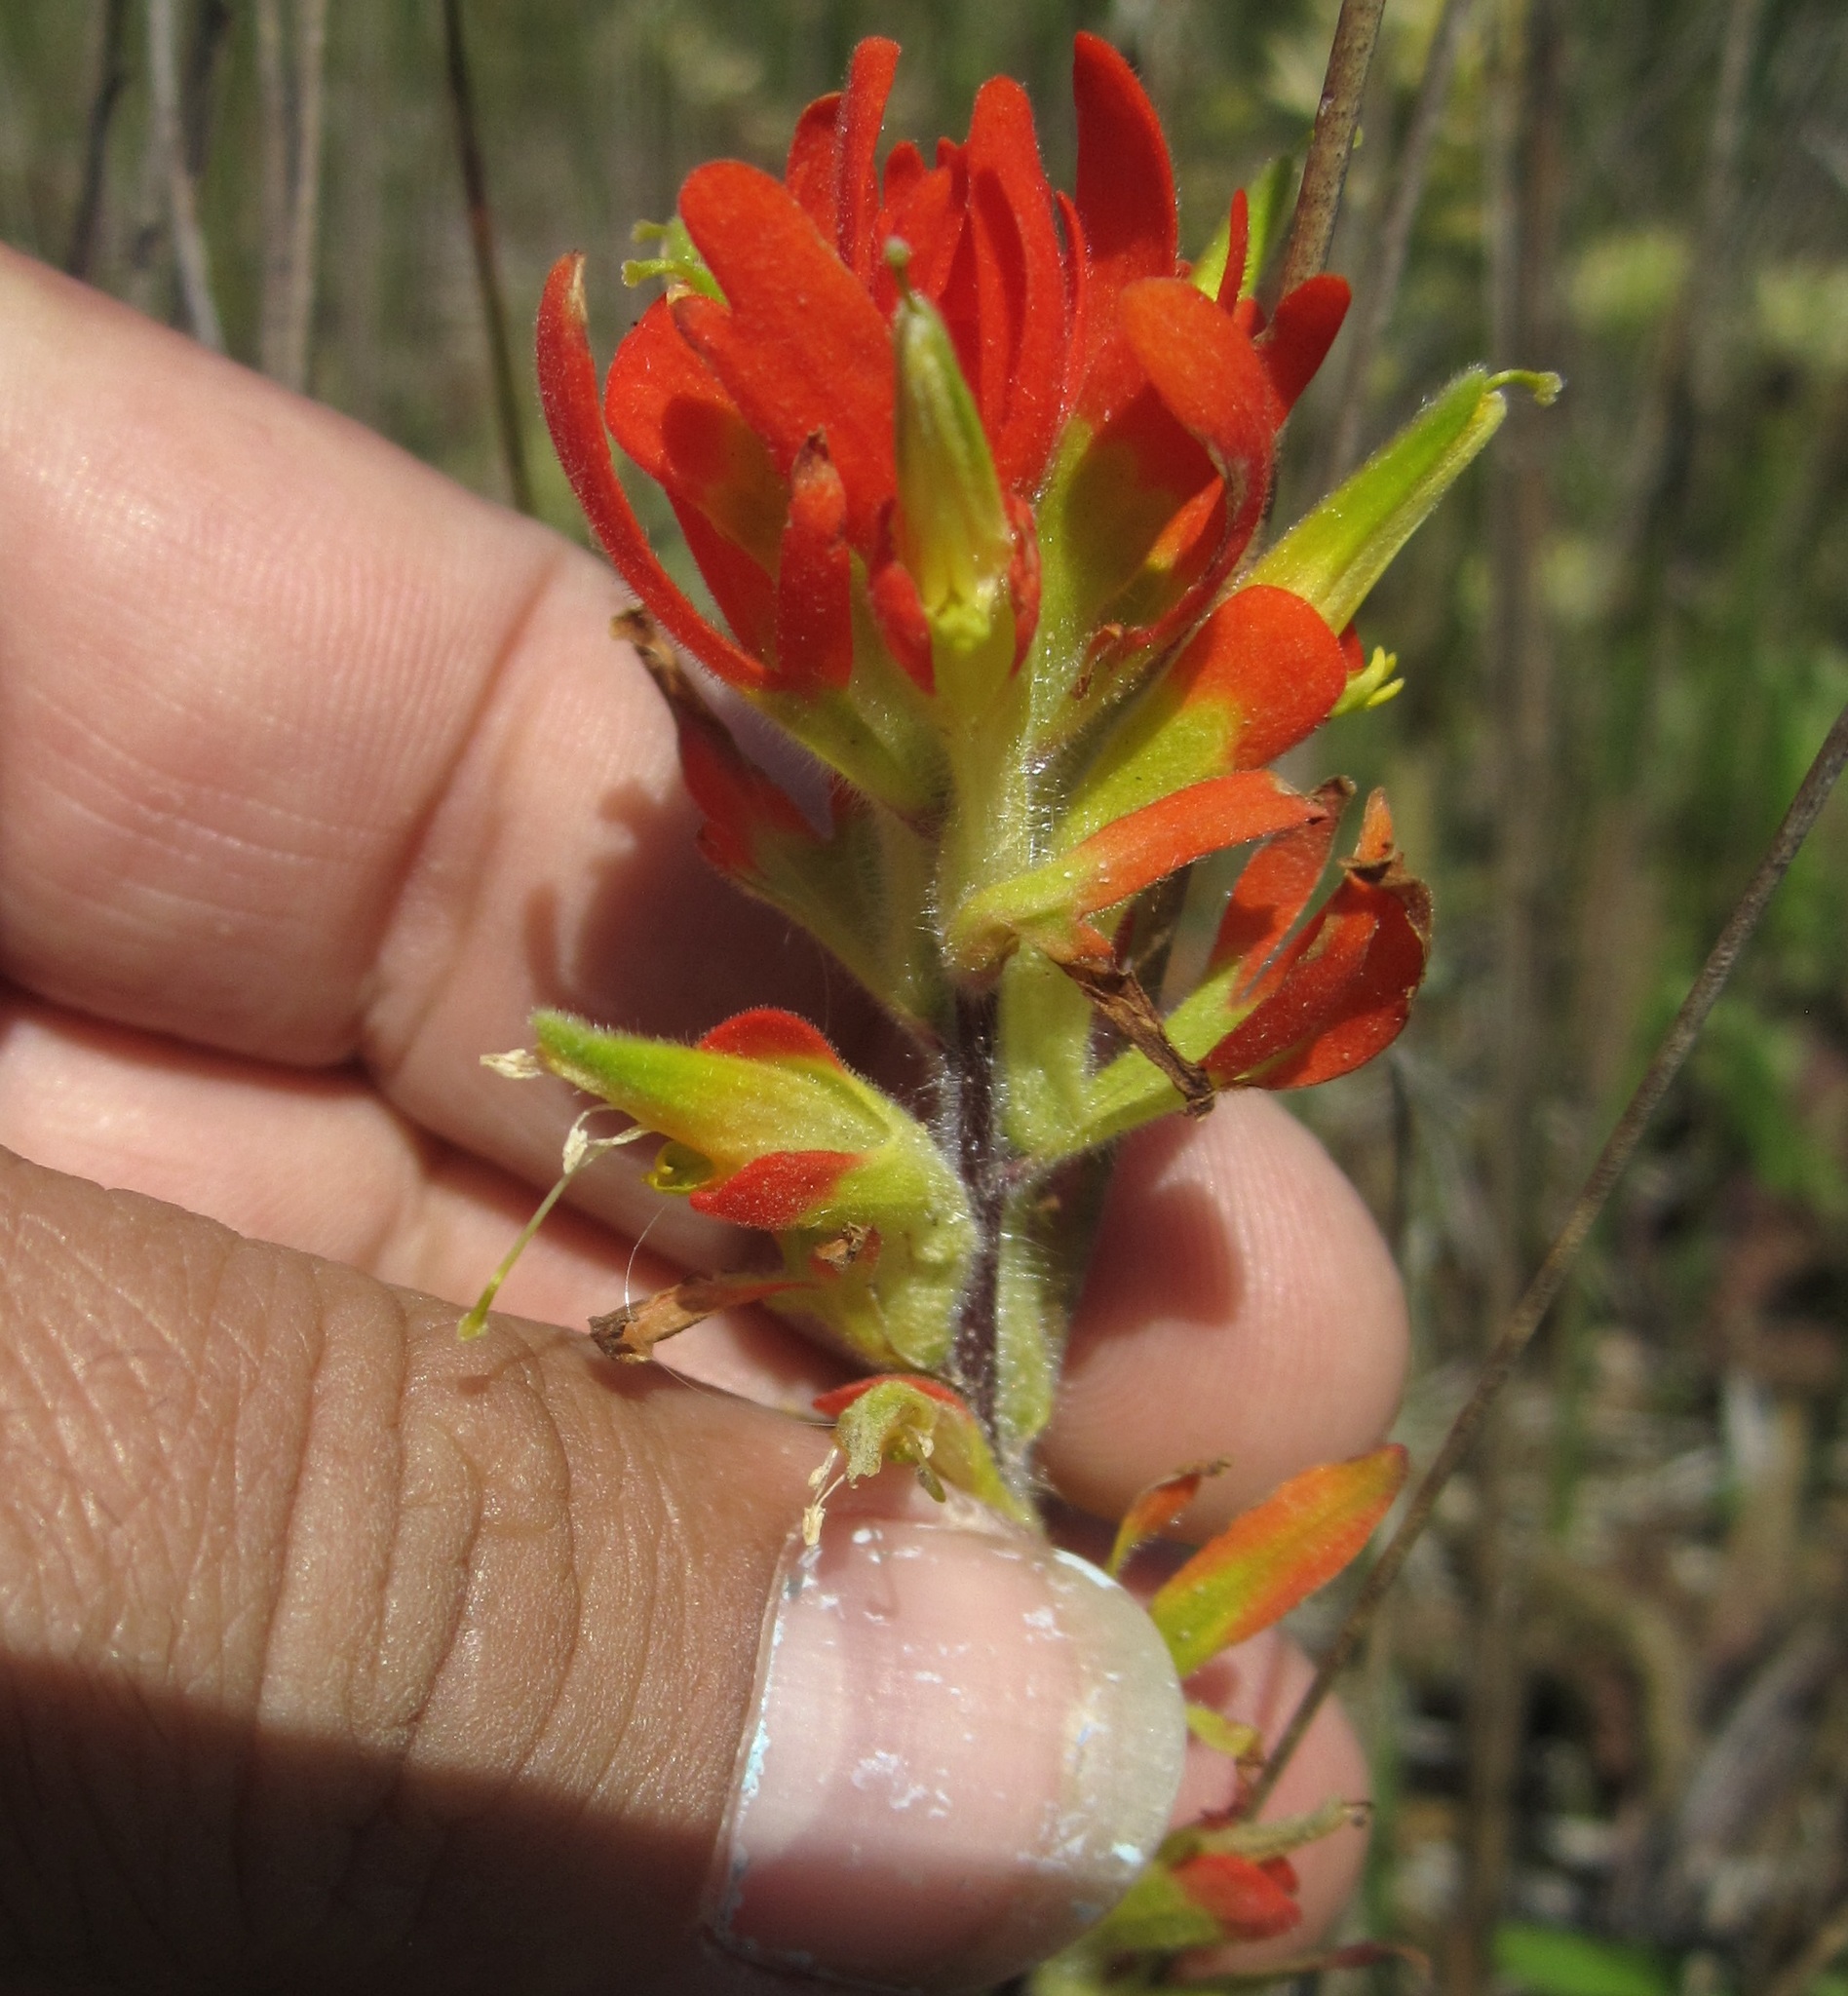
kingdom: Plantae
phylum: Tracheophyta
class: Magnoliopsida
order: Lamiales
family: Orobanchaceae
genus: Castilleja
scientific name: Castilleja coccinea
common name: Scarlet paintbrush
